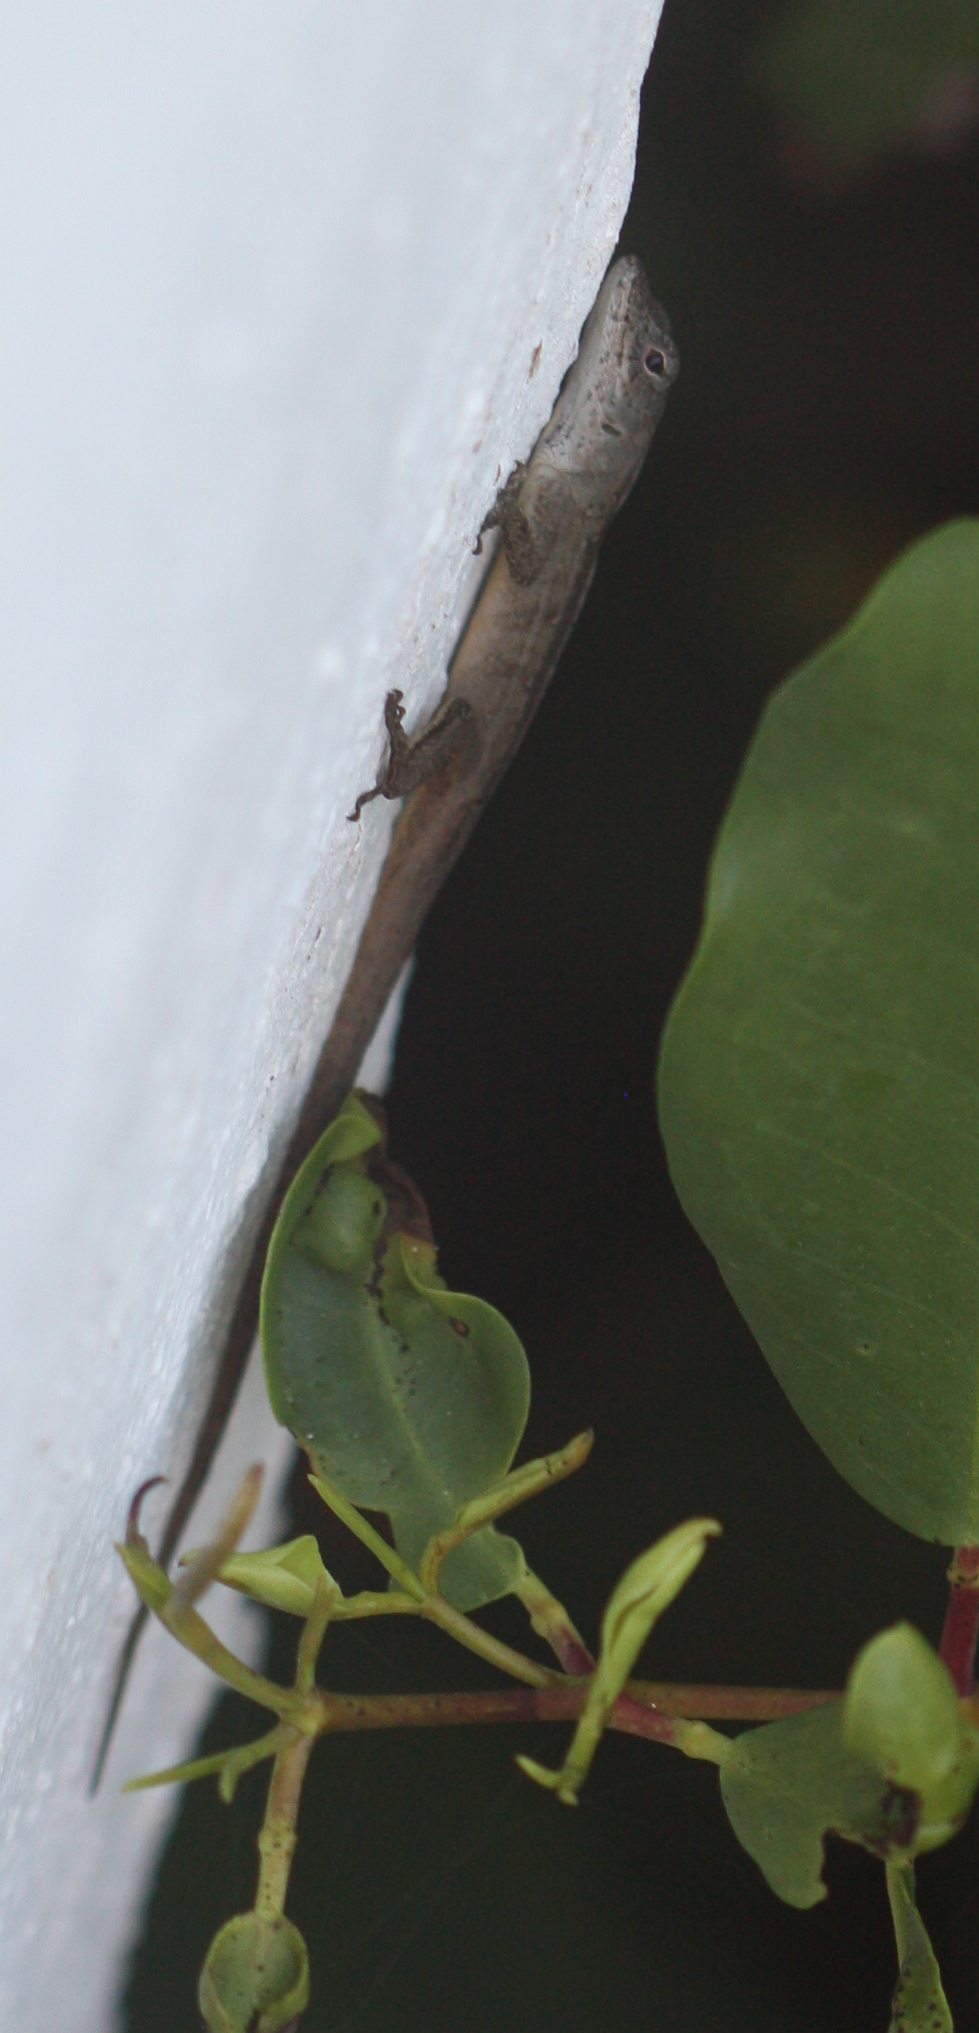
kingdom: Animalia
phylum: Chordata
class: Squamata
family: Dactyloidae
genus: Anolis
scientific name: Anolis sagrei
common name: Brown anole
